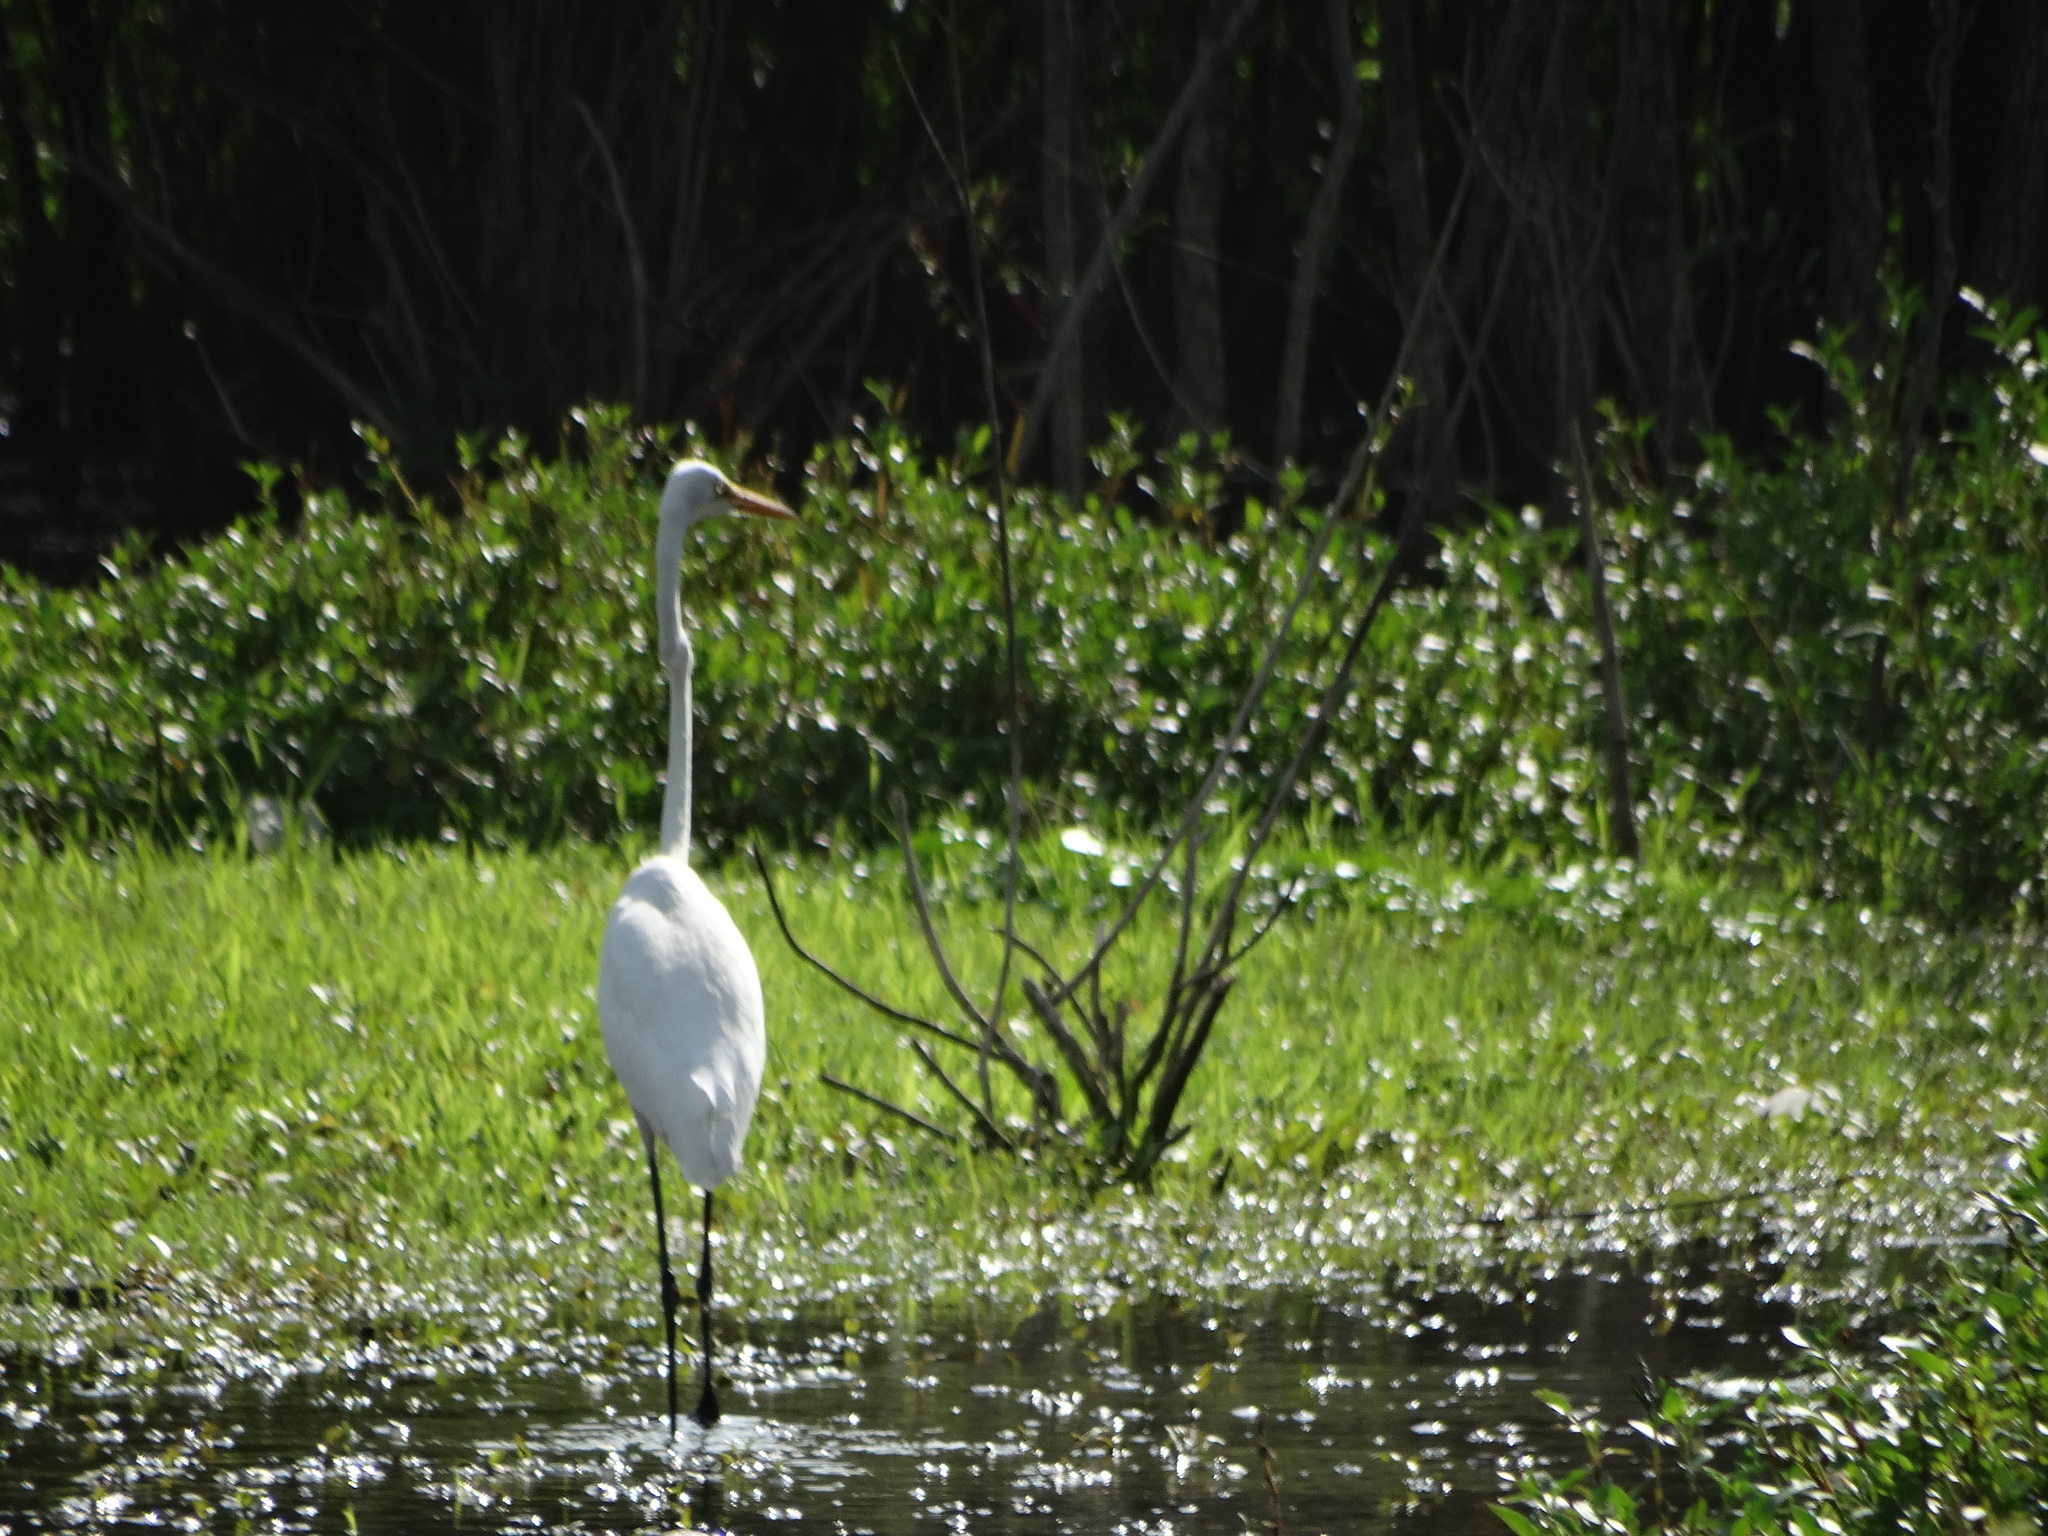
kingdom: Animalia
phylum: Chordata
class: Aves
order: Pelecaniformes
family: Ardeidae
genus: Ardea
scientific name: Ardea alba
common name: Great egret
